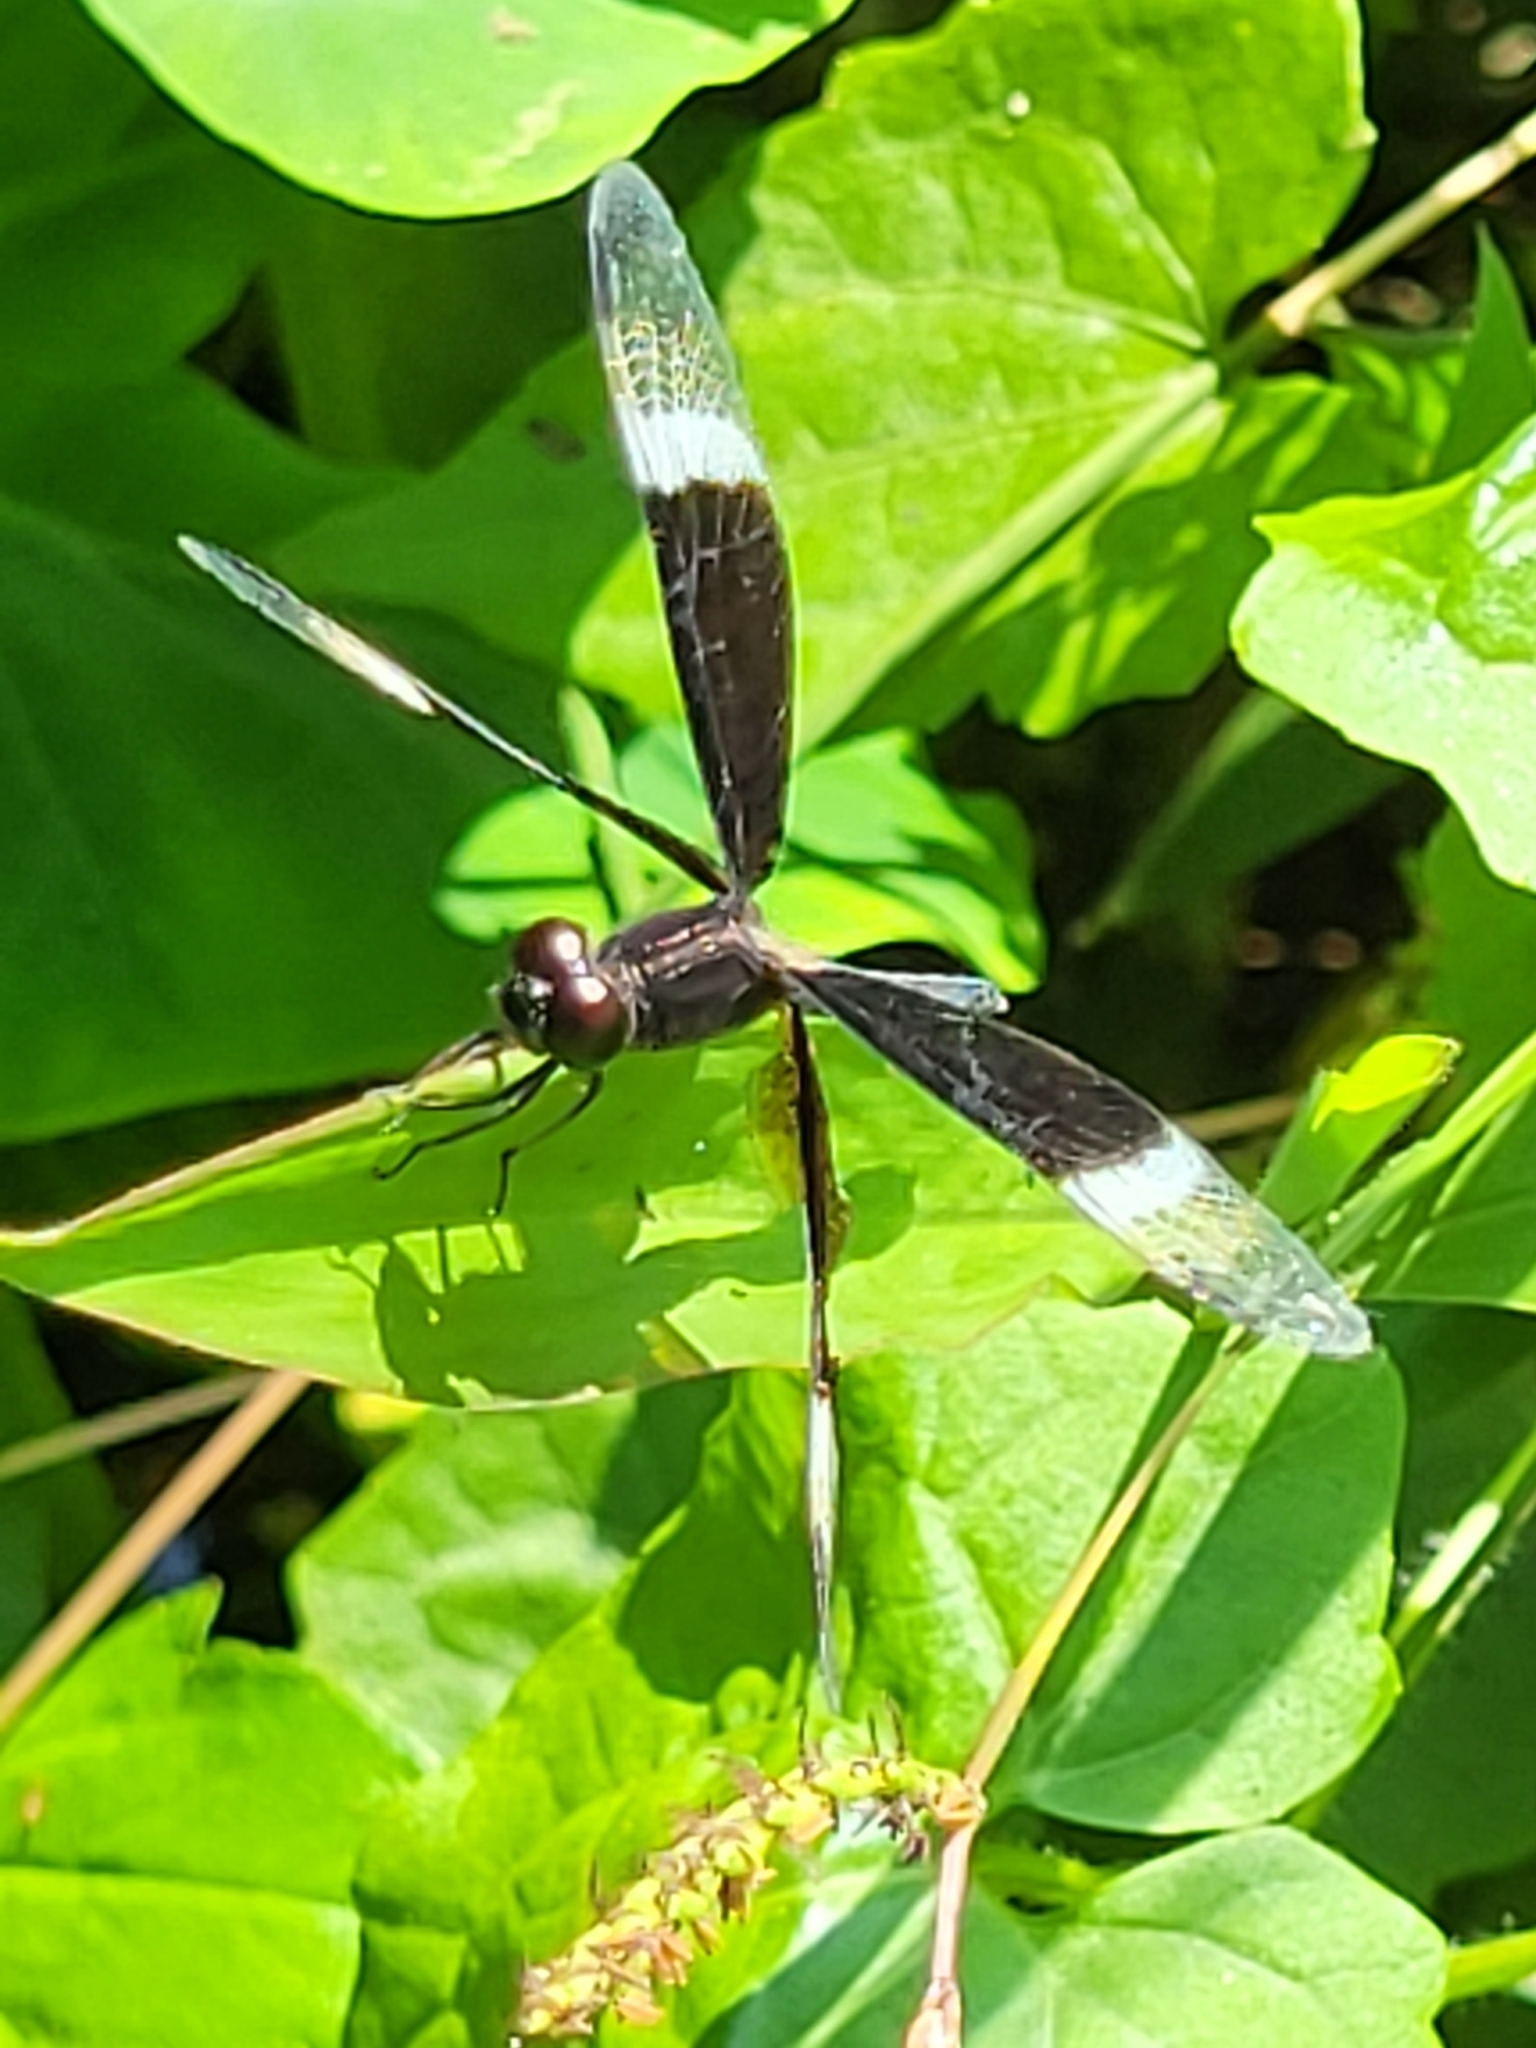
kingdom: Animalia
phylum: Arthropoda
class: Insecta
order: Odonata
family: Libellulidae
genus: Neurothemis
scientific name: Neurothemis tullia
